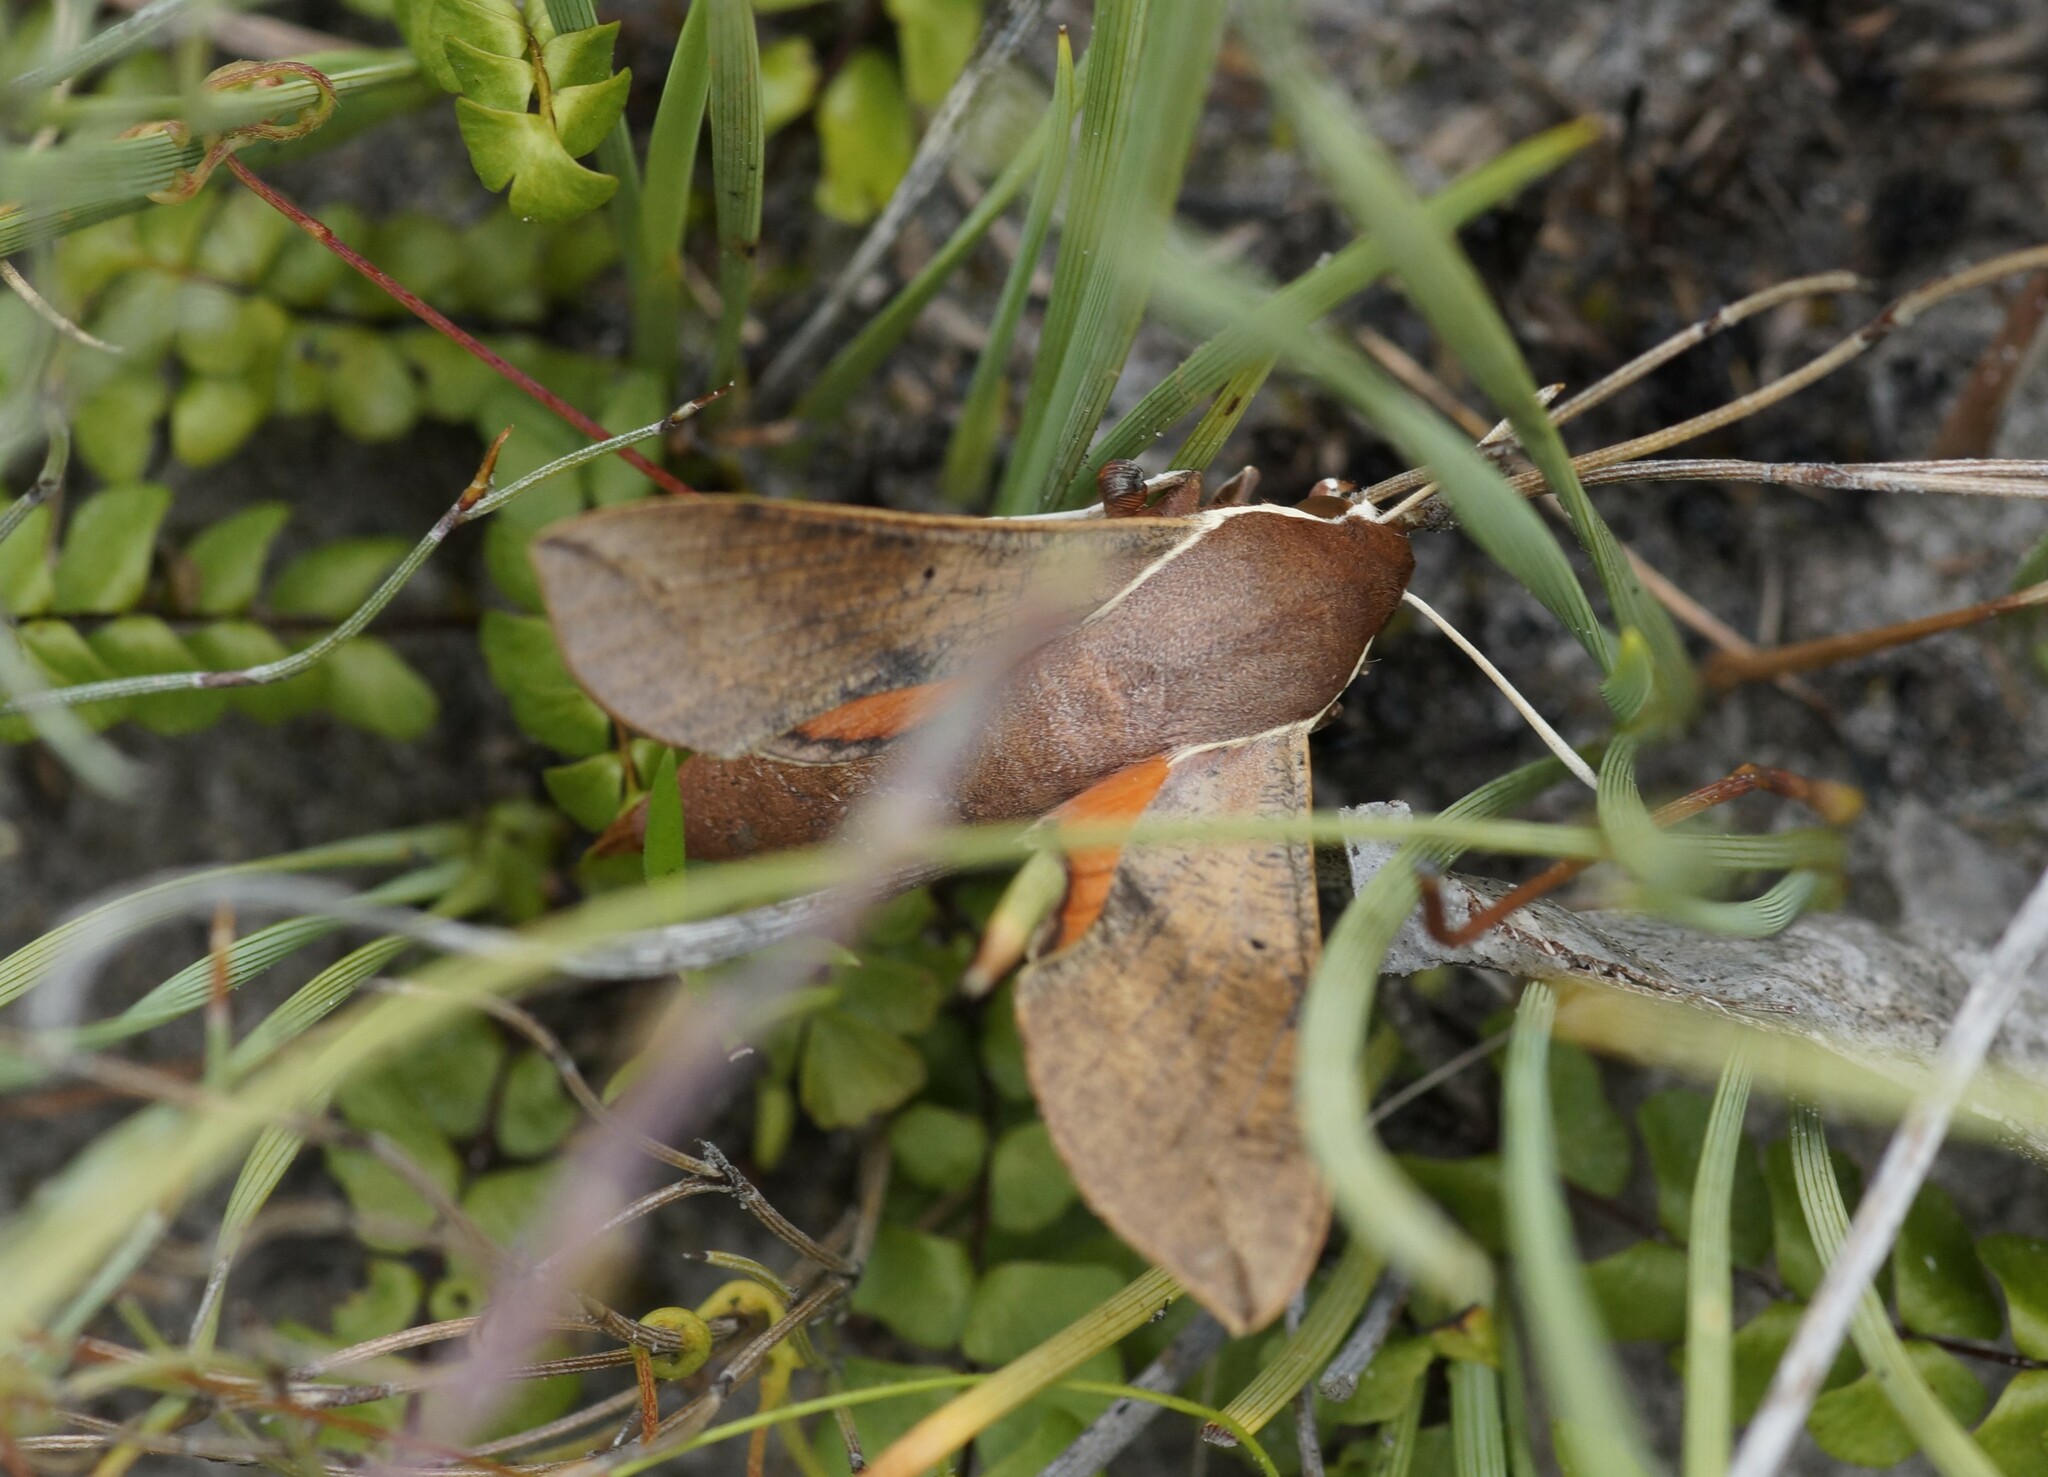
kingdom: Animalia
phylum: Arthropoda
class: Insecta
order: Lepidoptera
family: Sphingidae
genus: Hippotion
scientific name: Hippotion scrofa
